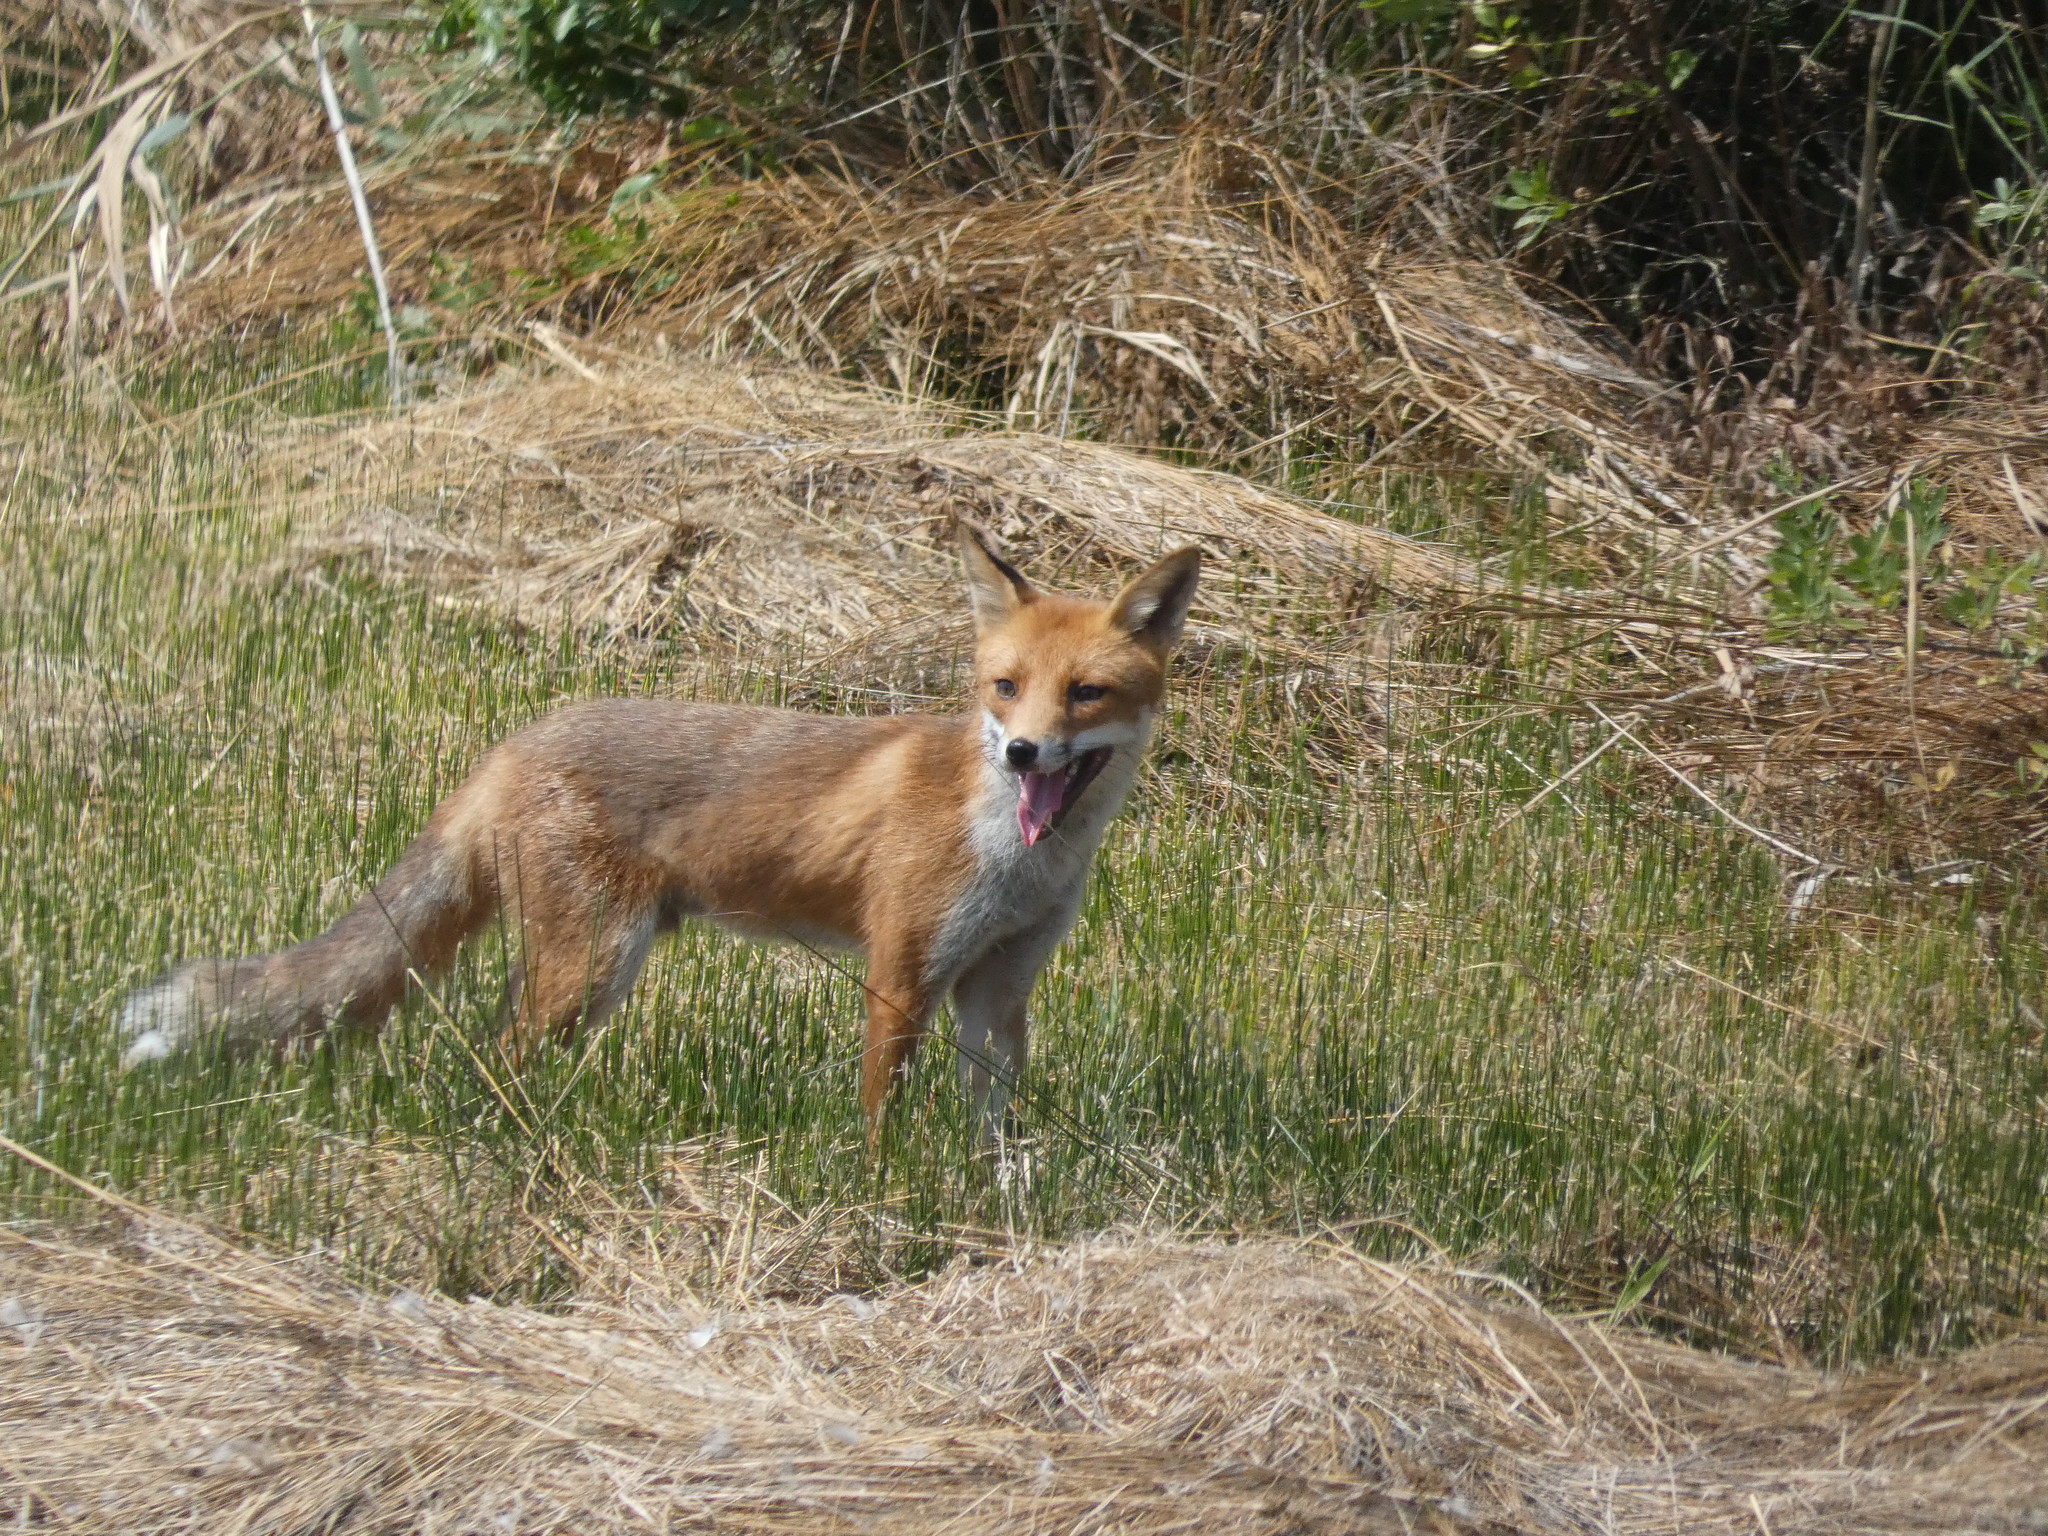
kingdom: Animalia
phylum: Chordata
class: Mammalia
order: Carnivora
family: Canidae
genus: Vulpes
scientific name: Vulpes vulpes
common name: Red fox
